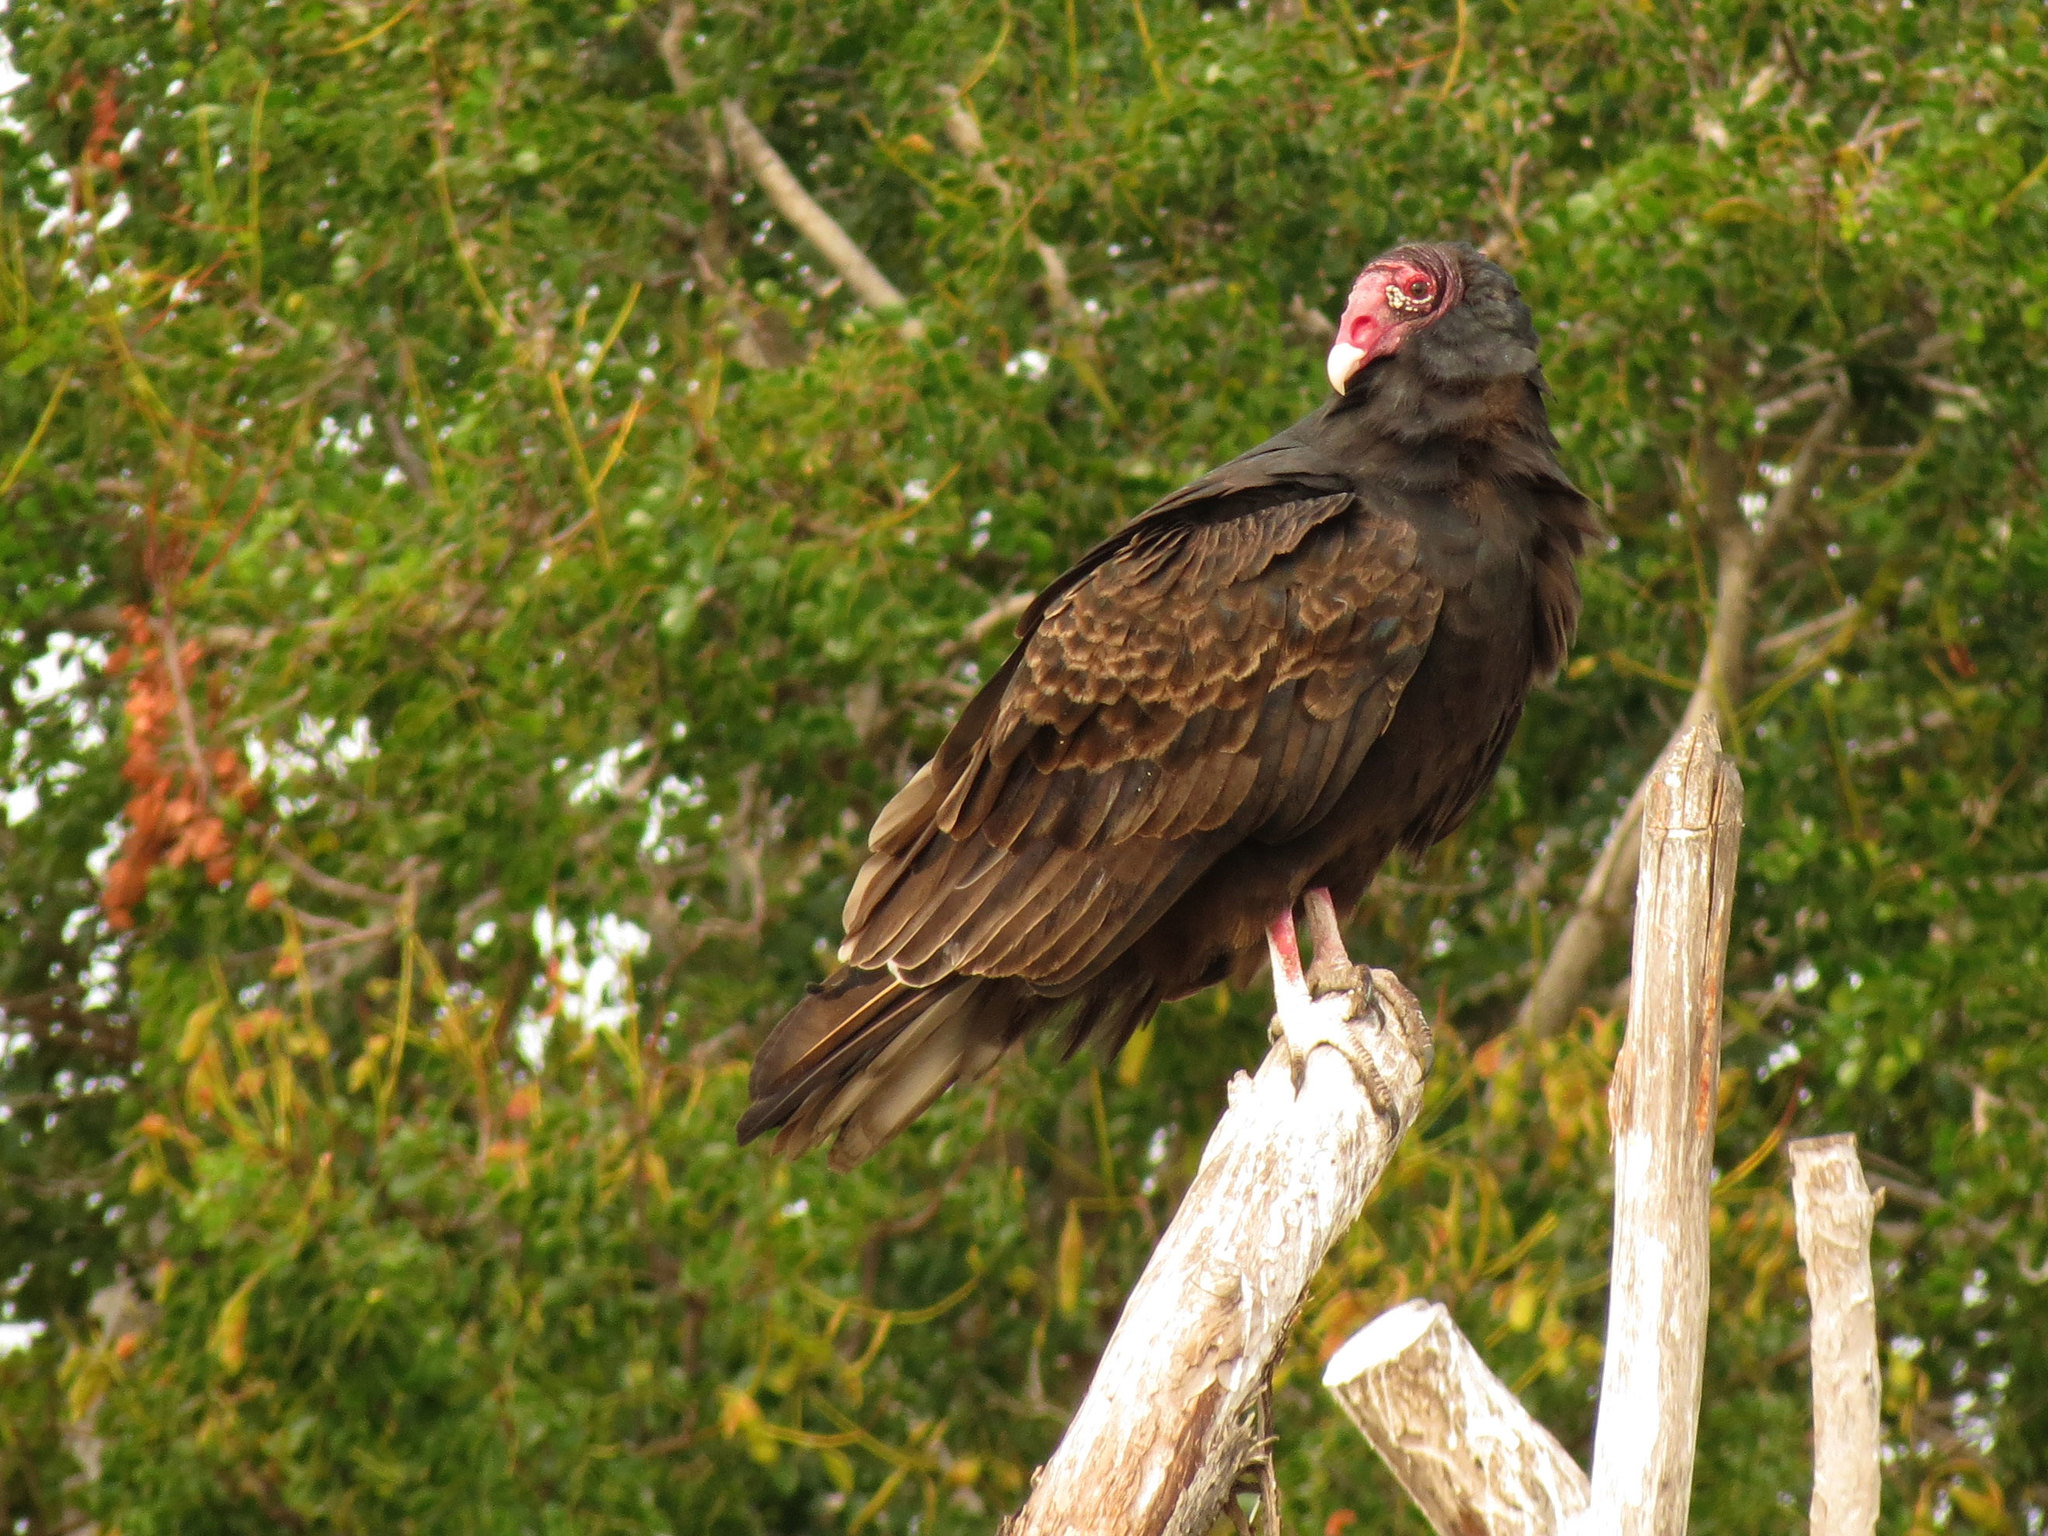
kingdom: Animalia
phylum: Chordata
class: Aves
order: Accipitriformes
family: Cathartidae
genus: Cathartes
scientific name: Cathartes aura
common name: Turkey vulture
